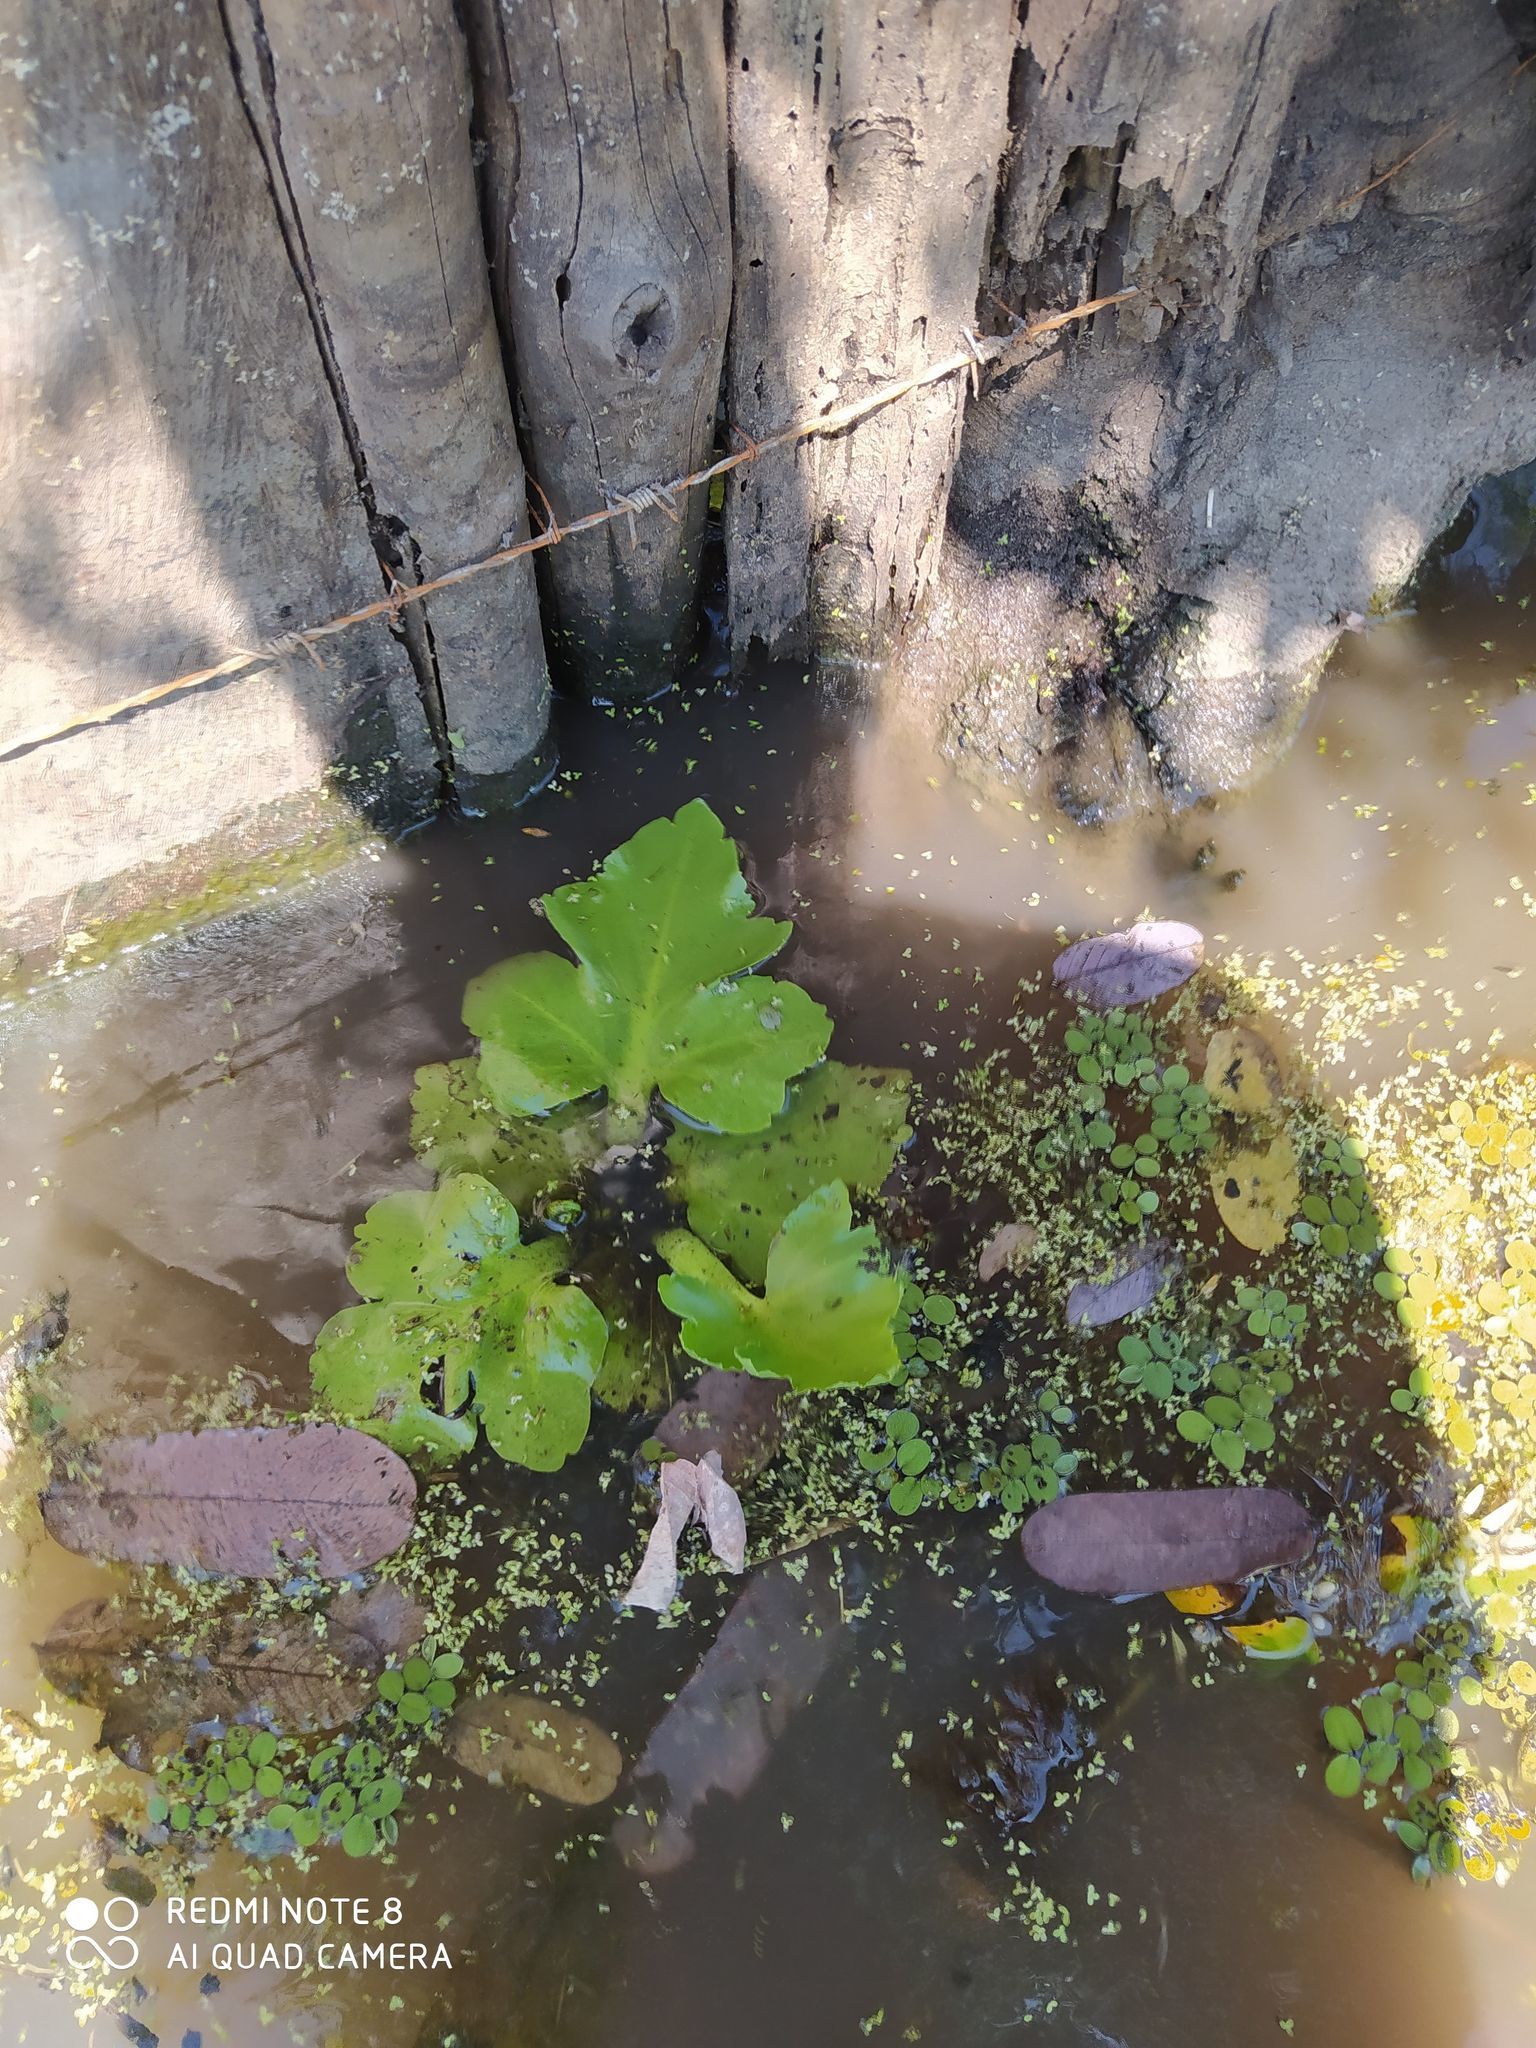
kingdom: Plantae
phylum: Tracheophyta
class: Polypodiopsida
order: Polypodiales
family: Pteridaceae
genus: Ceratopteris
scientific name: Ceratopteris pteridoides
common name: Floating fern
